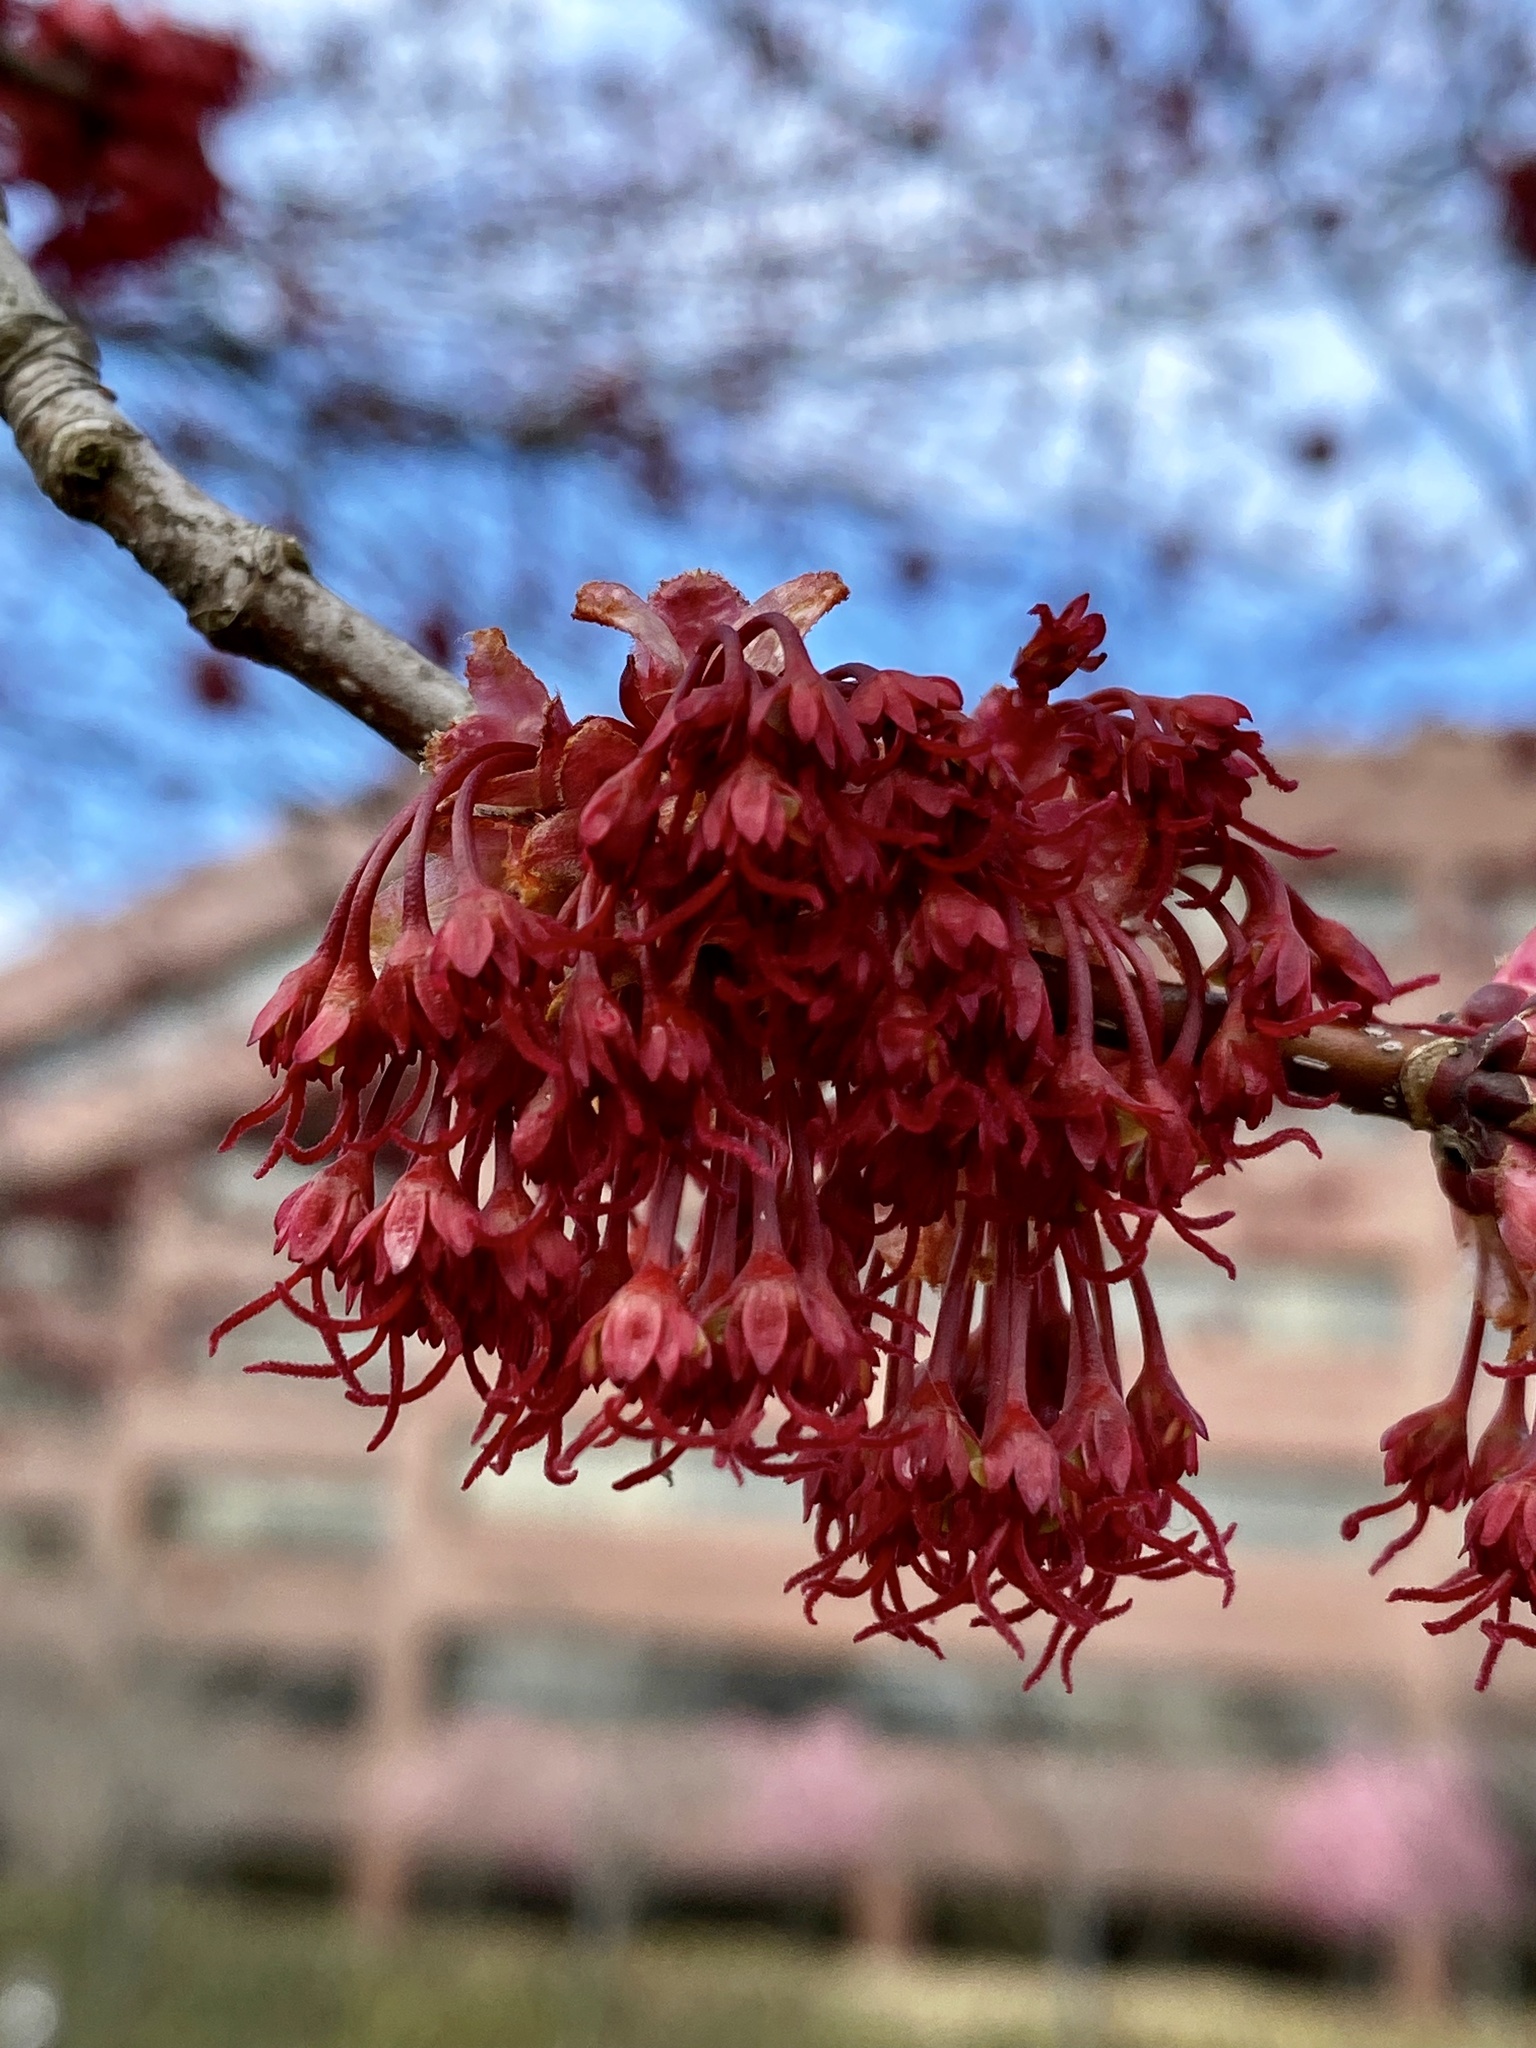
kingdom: Plantae
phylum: Tracheophyta
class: Magnoliopsida
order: Sapindales
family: Sapindaceae
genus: Acer
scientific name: Acer rubrum
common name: Red maple
